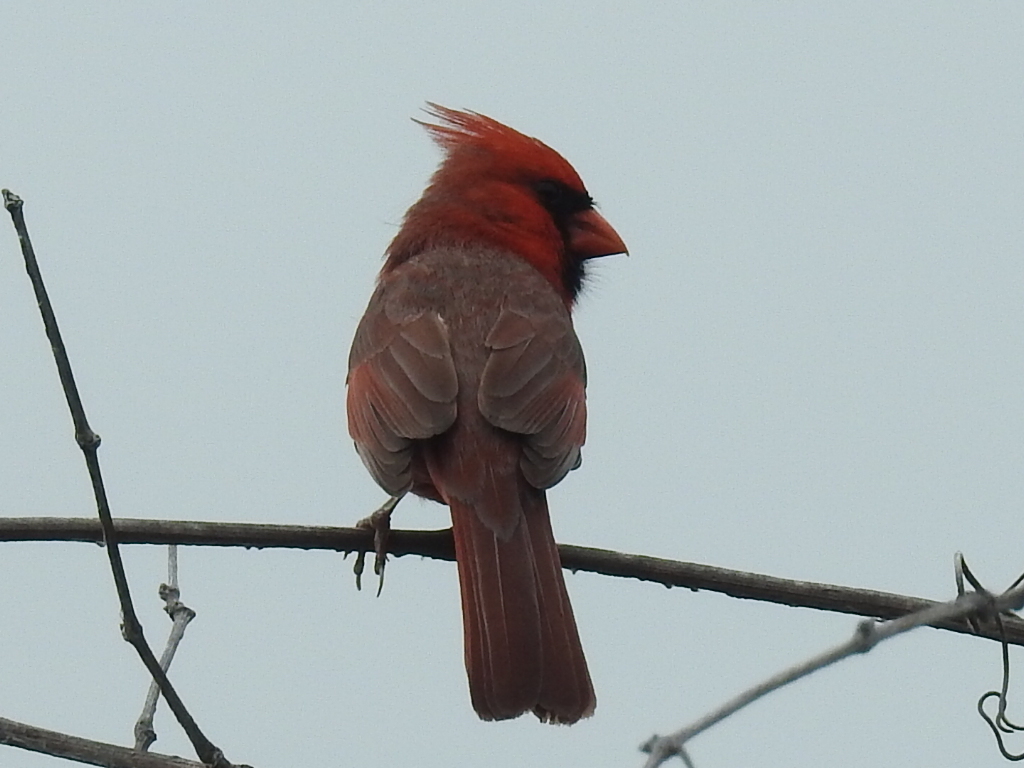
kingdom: Animalia
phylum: Chordata
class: Aves
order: Passeriformes
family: Cardinalidae
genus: Cardinalis
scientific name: Cardinalis cardinalis
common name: Northern cardinal
